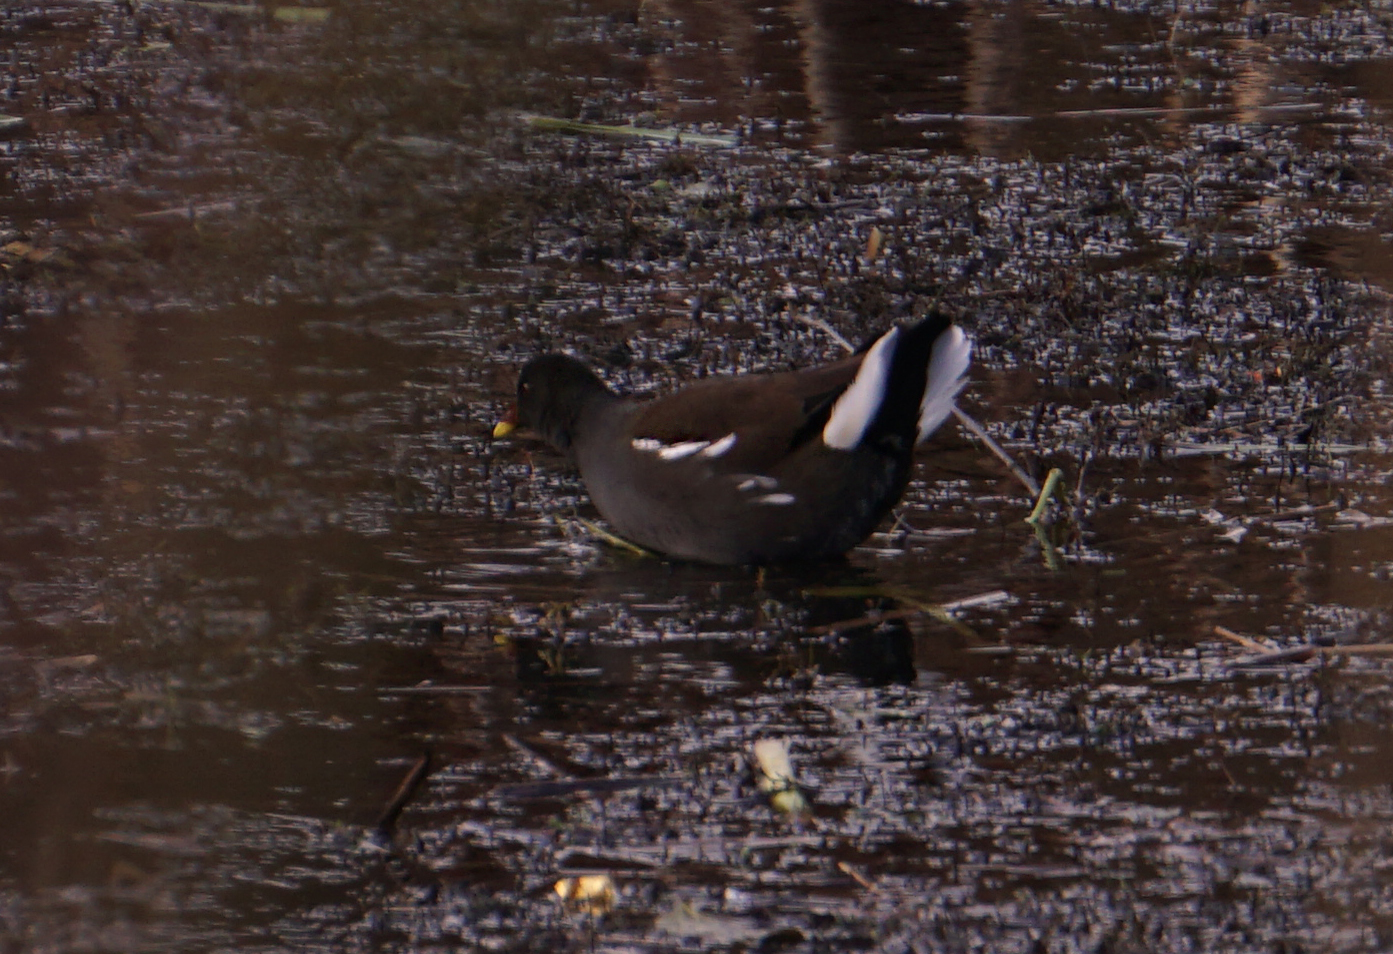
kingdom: Animalia
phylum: Chordata
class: Aves
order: Gruiformes
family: Rallidae
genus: Gallinula
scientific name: Gallinula chloropus
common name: Common moorhen
